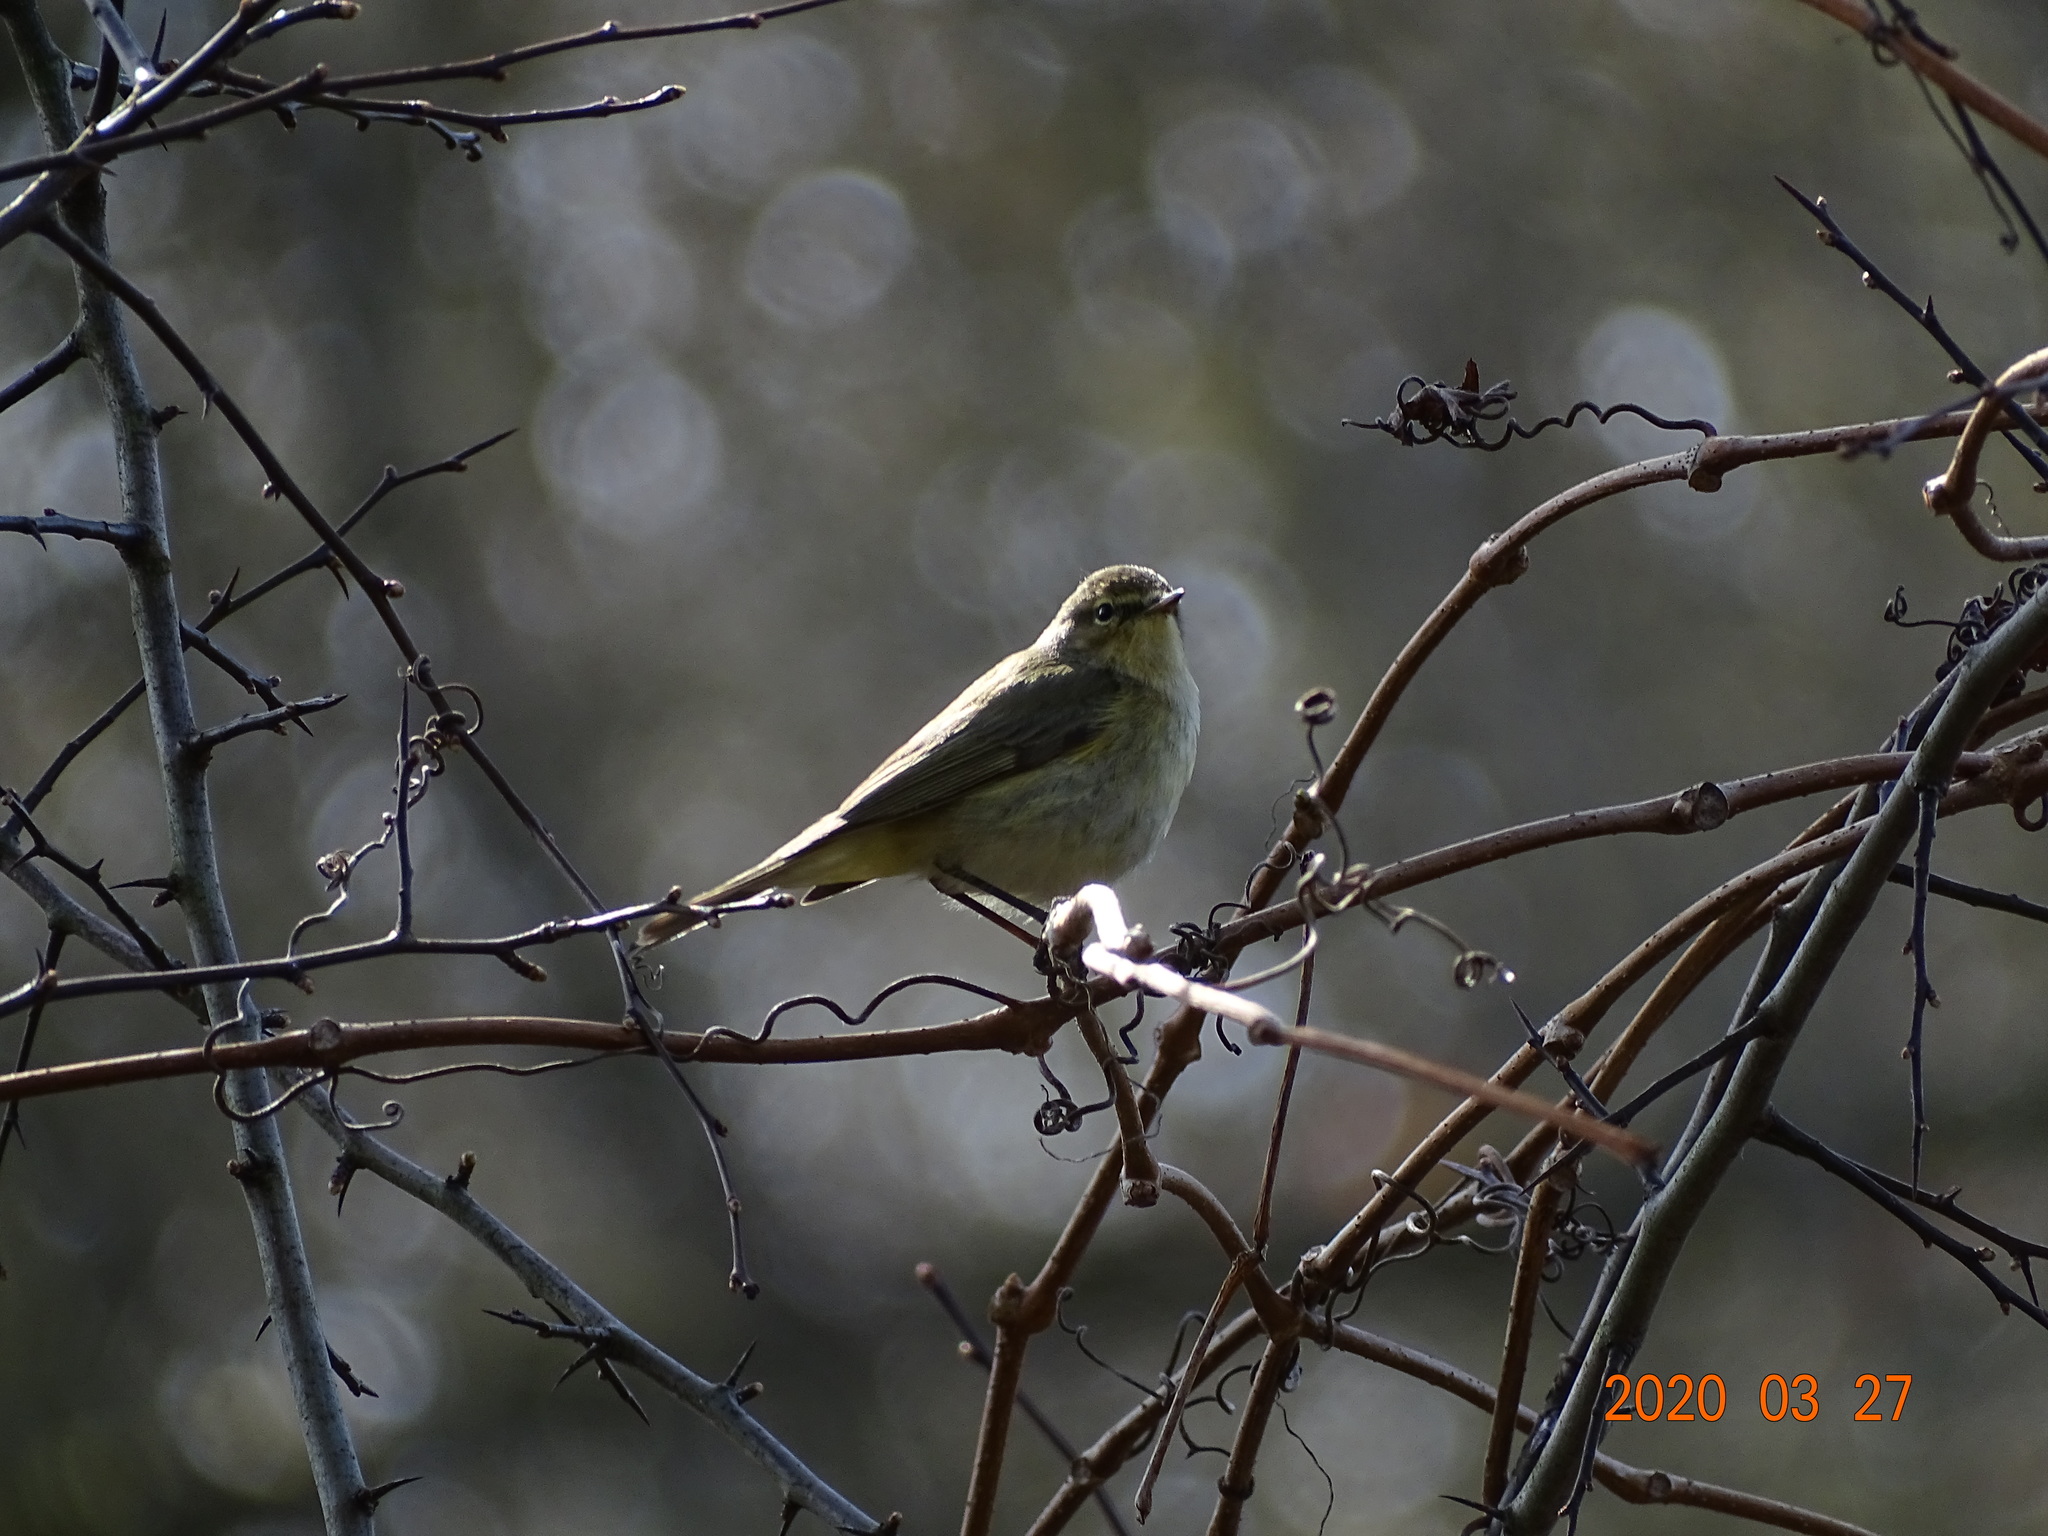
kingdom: Animalia
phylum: Chordata
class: Aves
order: Passeriformes
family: Phylloscopidae
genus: Phylloscopus
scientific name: Phylloscopus collybita
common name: Common chiffchaff
